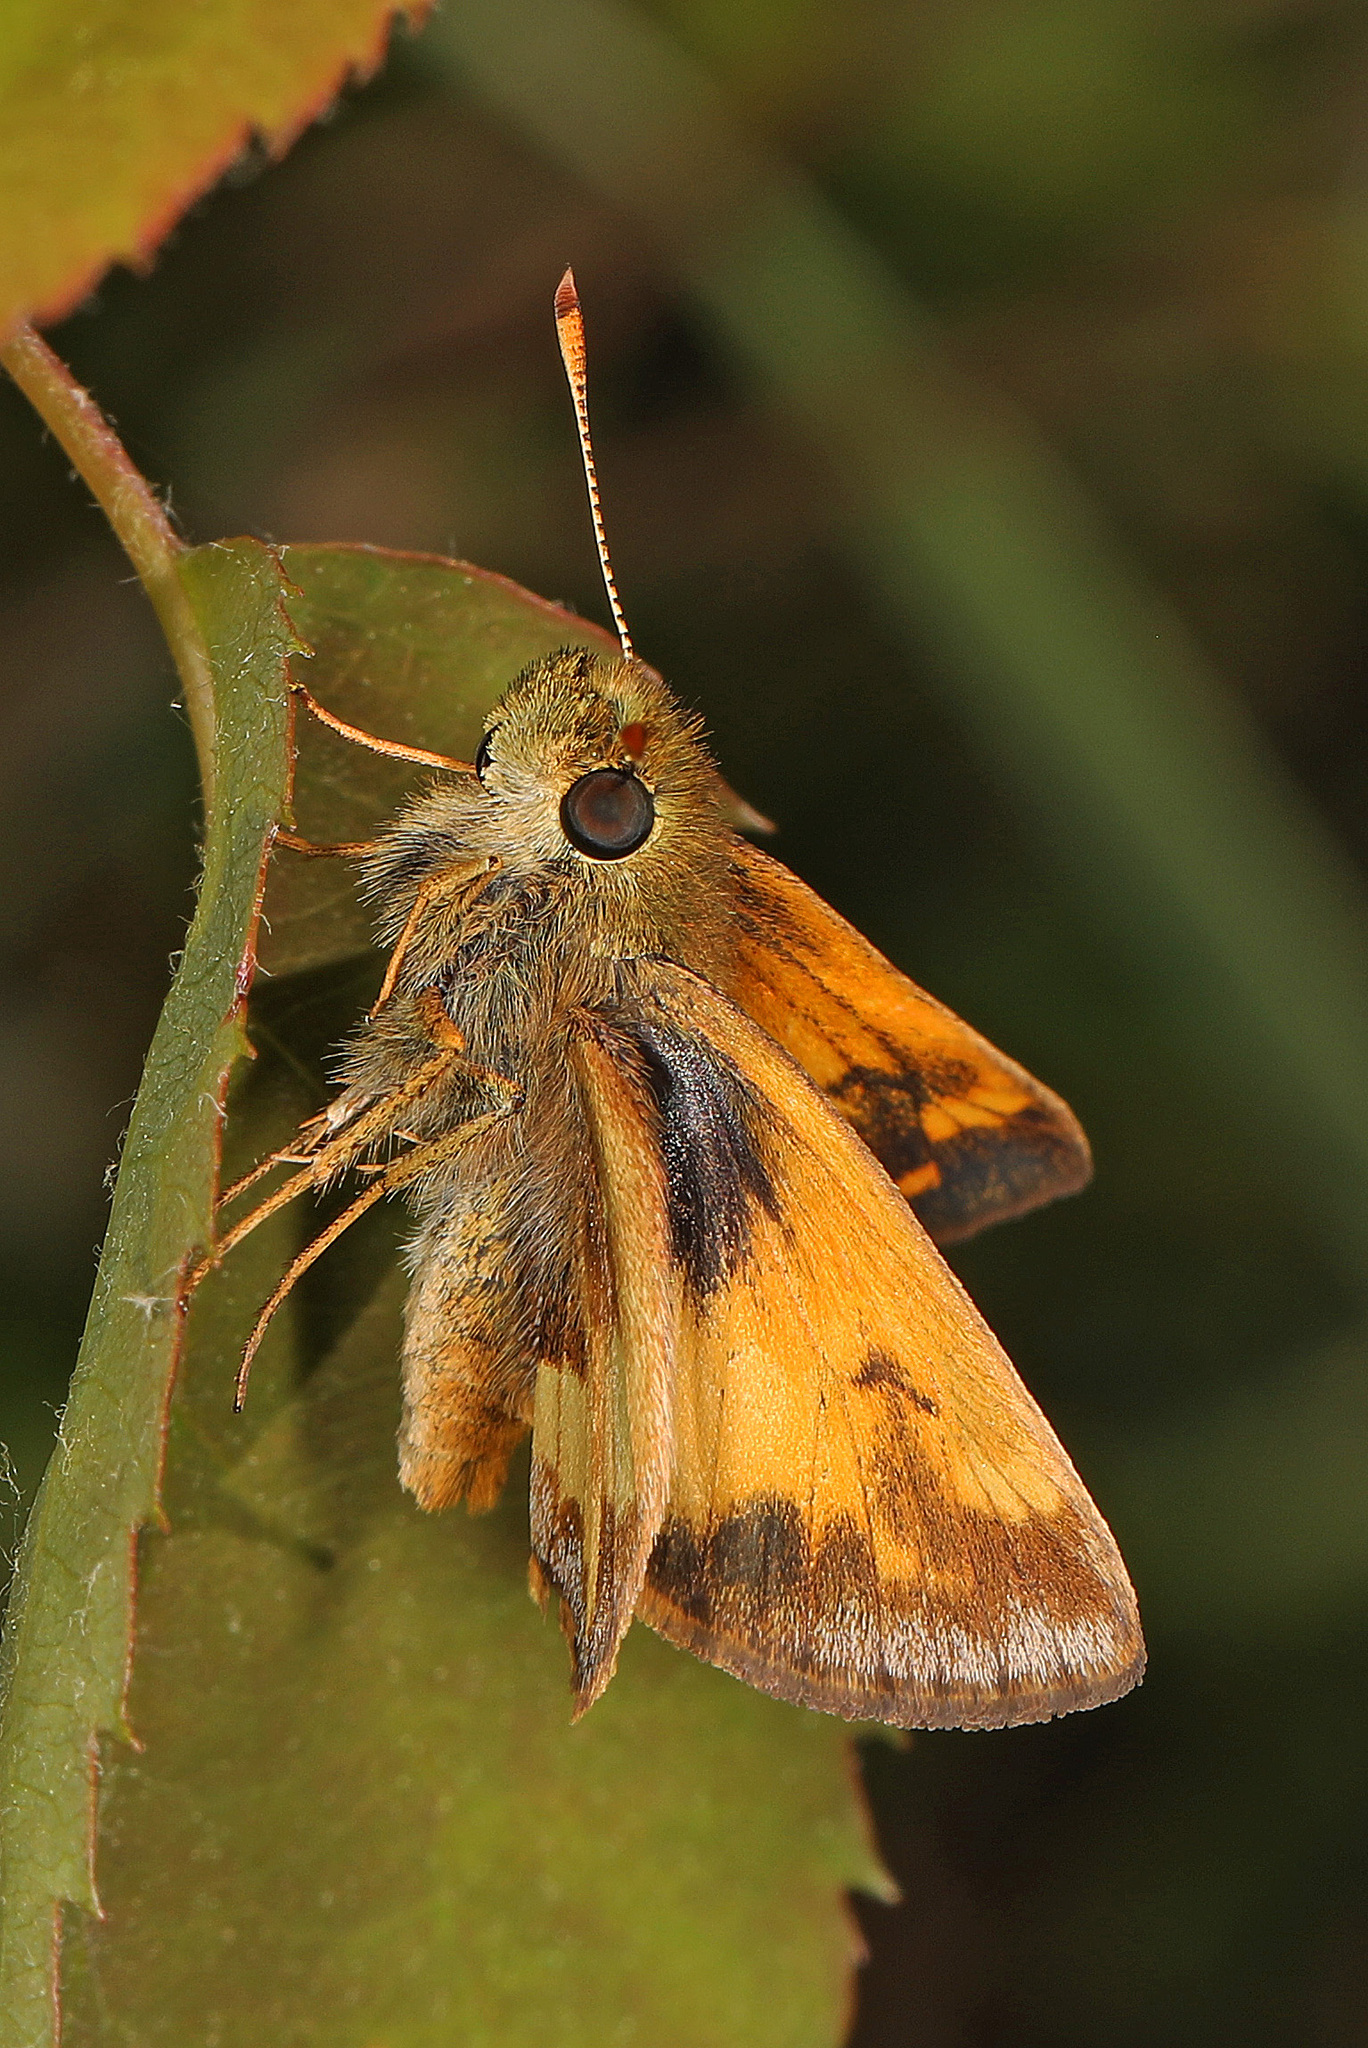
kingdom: Animalia
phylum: Arthropoda
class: Insecta
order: Lepidoptera
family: Hesperiidae
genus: Lon
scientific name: Lon hobomok
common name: Hobomok skipper
